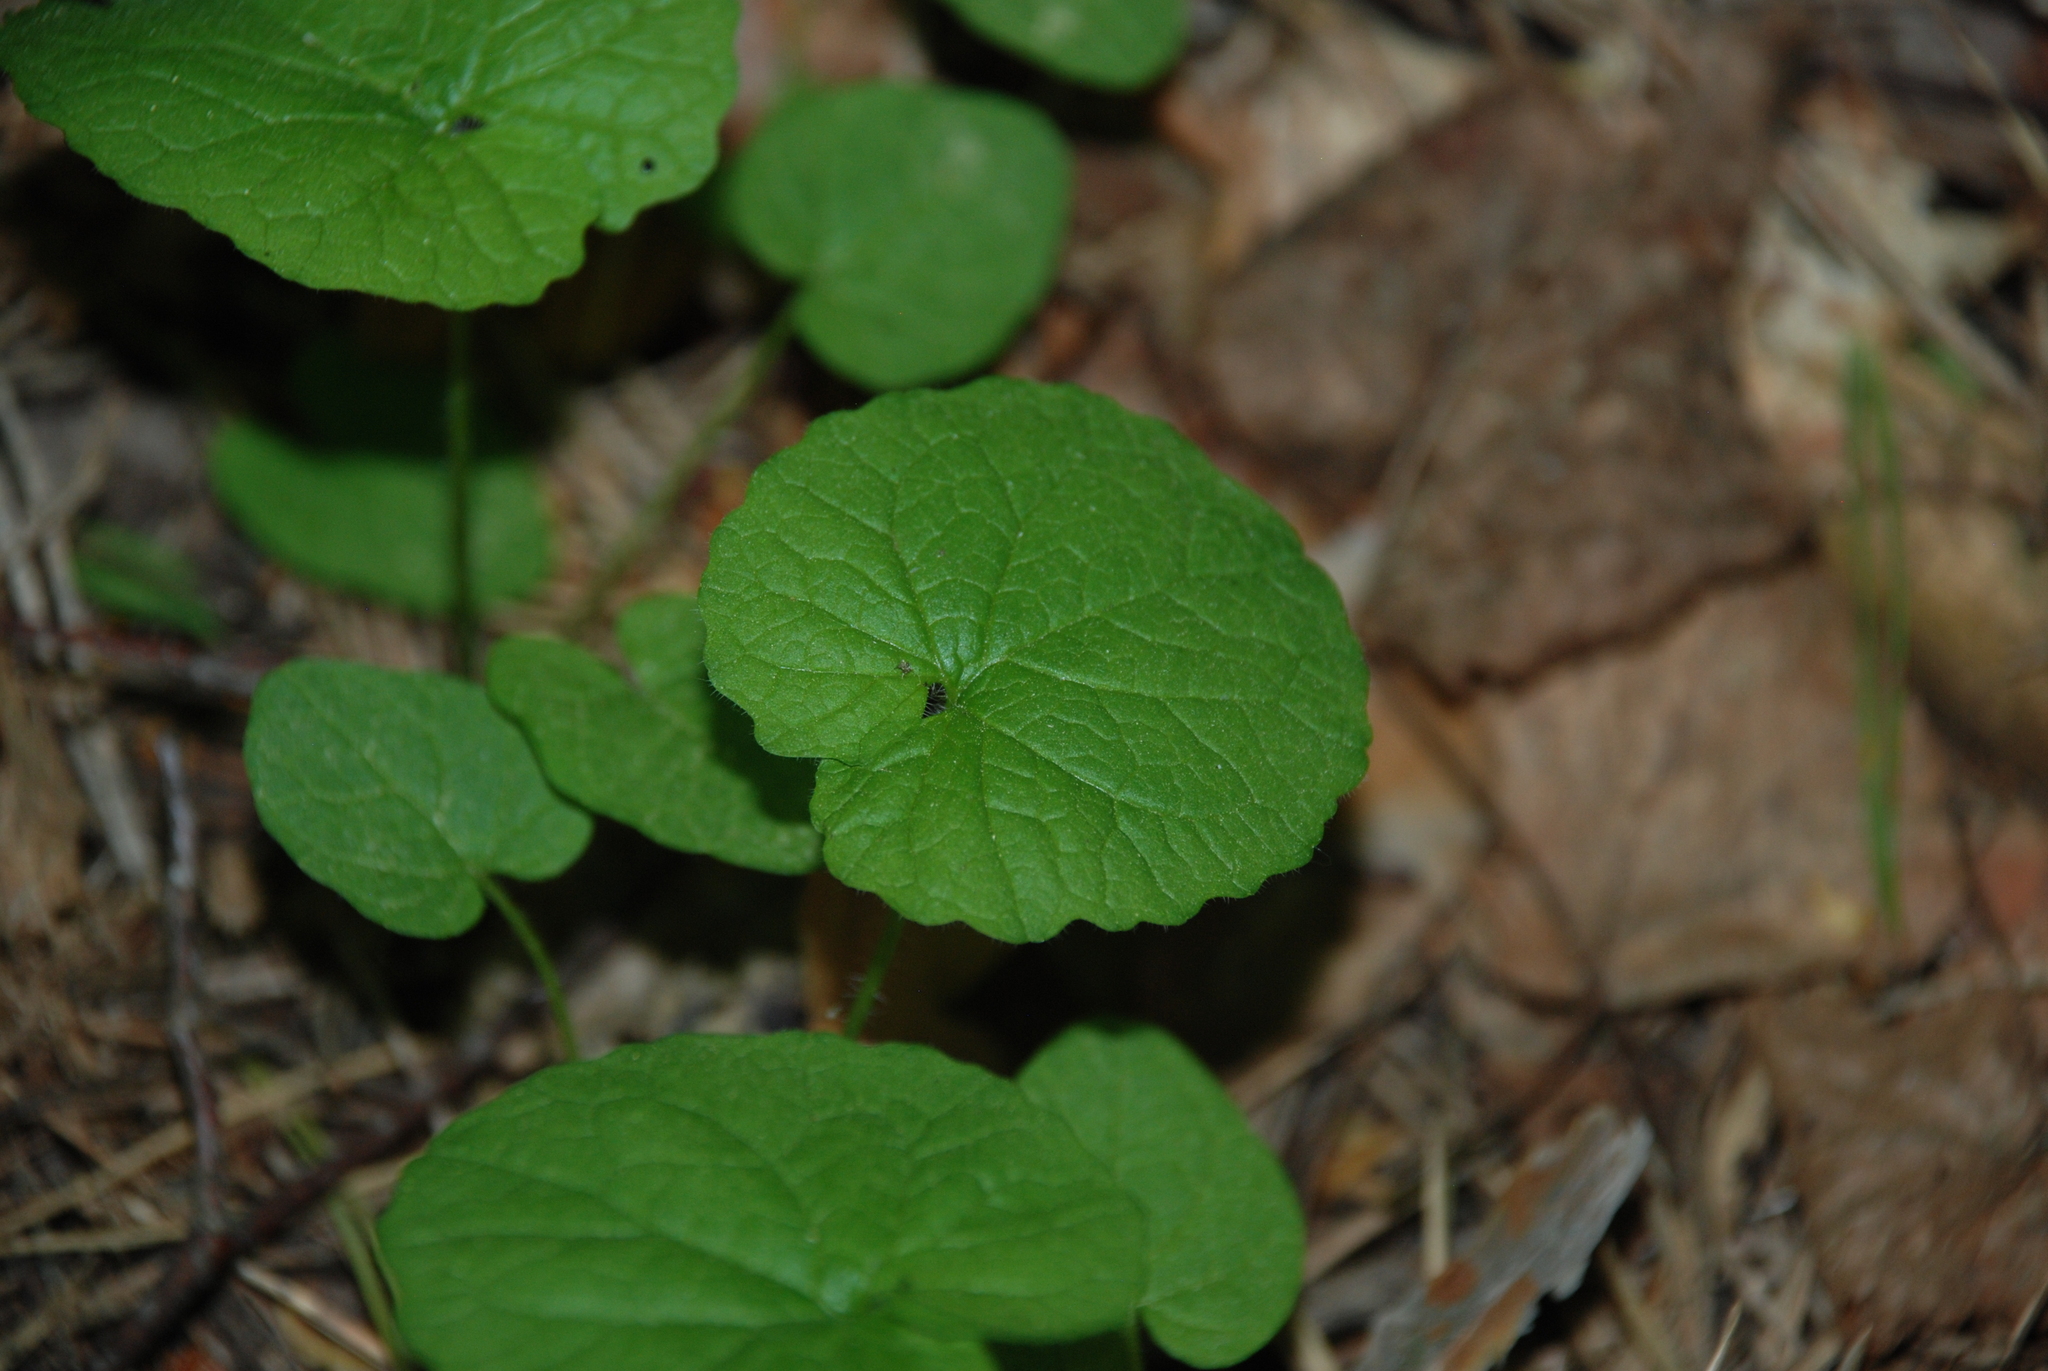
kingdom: Plantae
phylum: Tracheophyta
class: Magnoliopsida
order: Brassicales
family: Brassicaceae
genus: Alliaria
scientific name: Alliaria petiolata
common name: Garlic mustard
